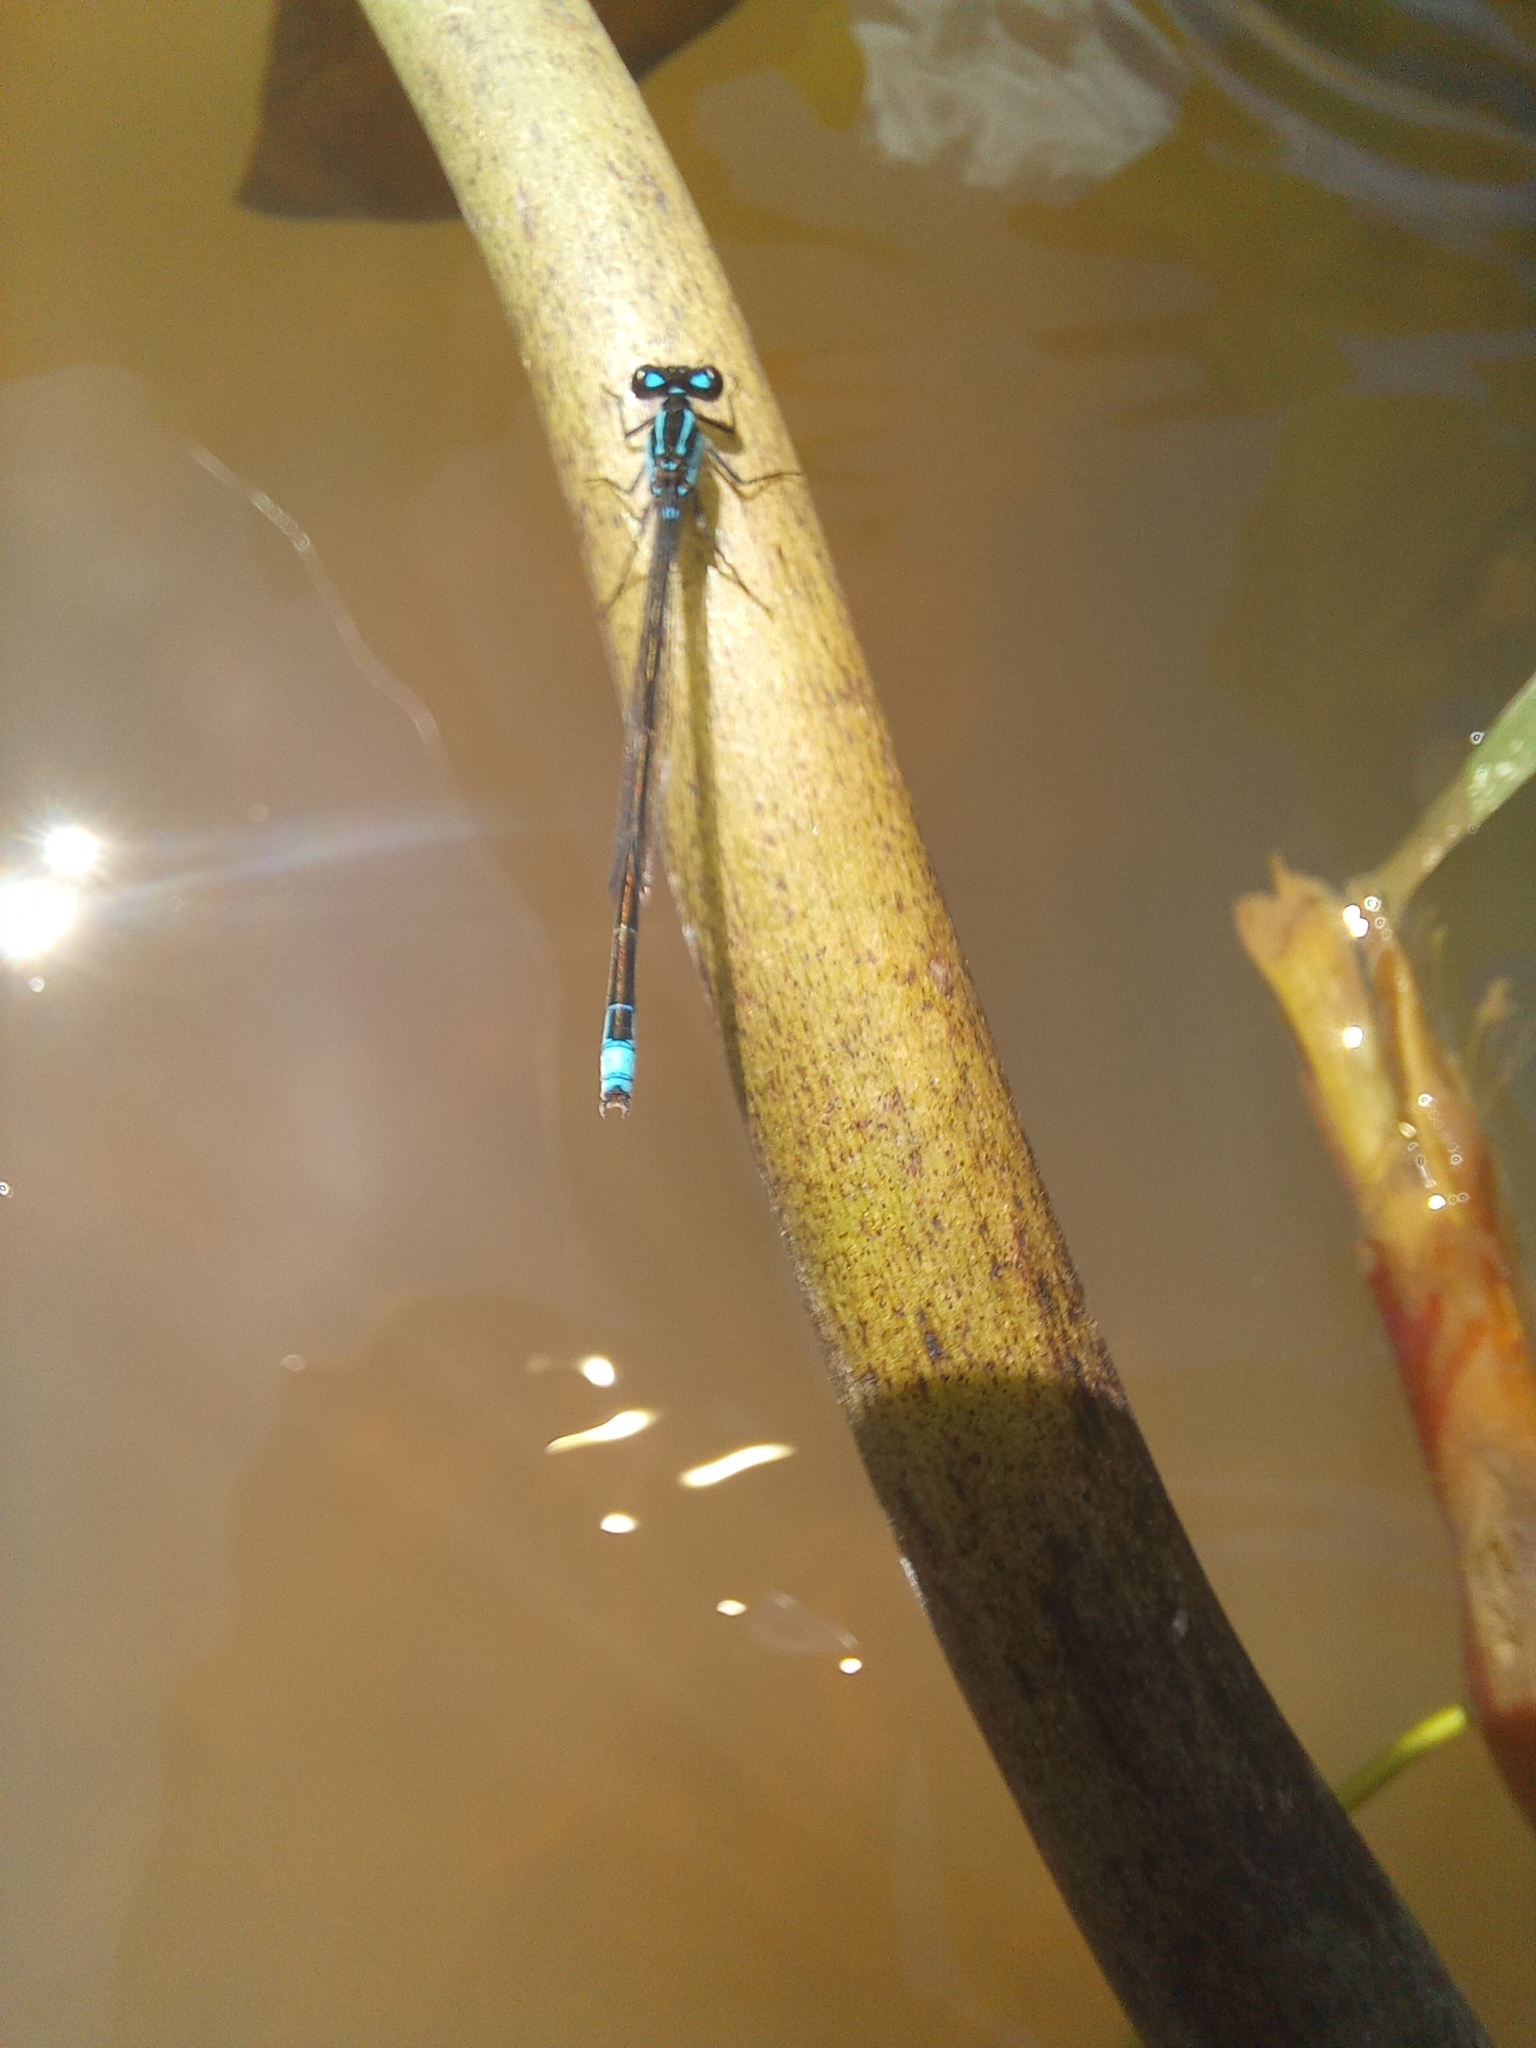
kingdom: Animalia
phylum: Arthropoda
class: Insecta
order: Odonata
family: Coenagrionidae
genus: Homeoura
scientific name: Homeoura chelifera
